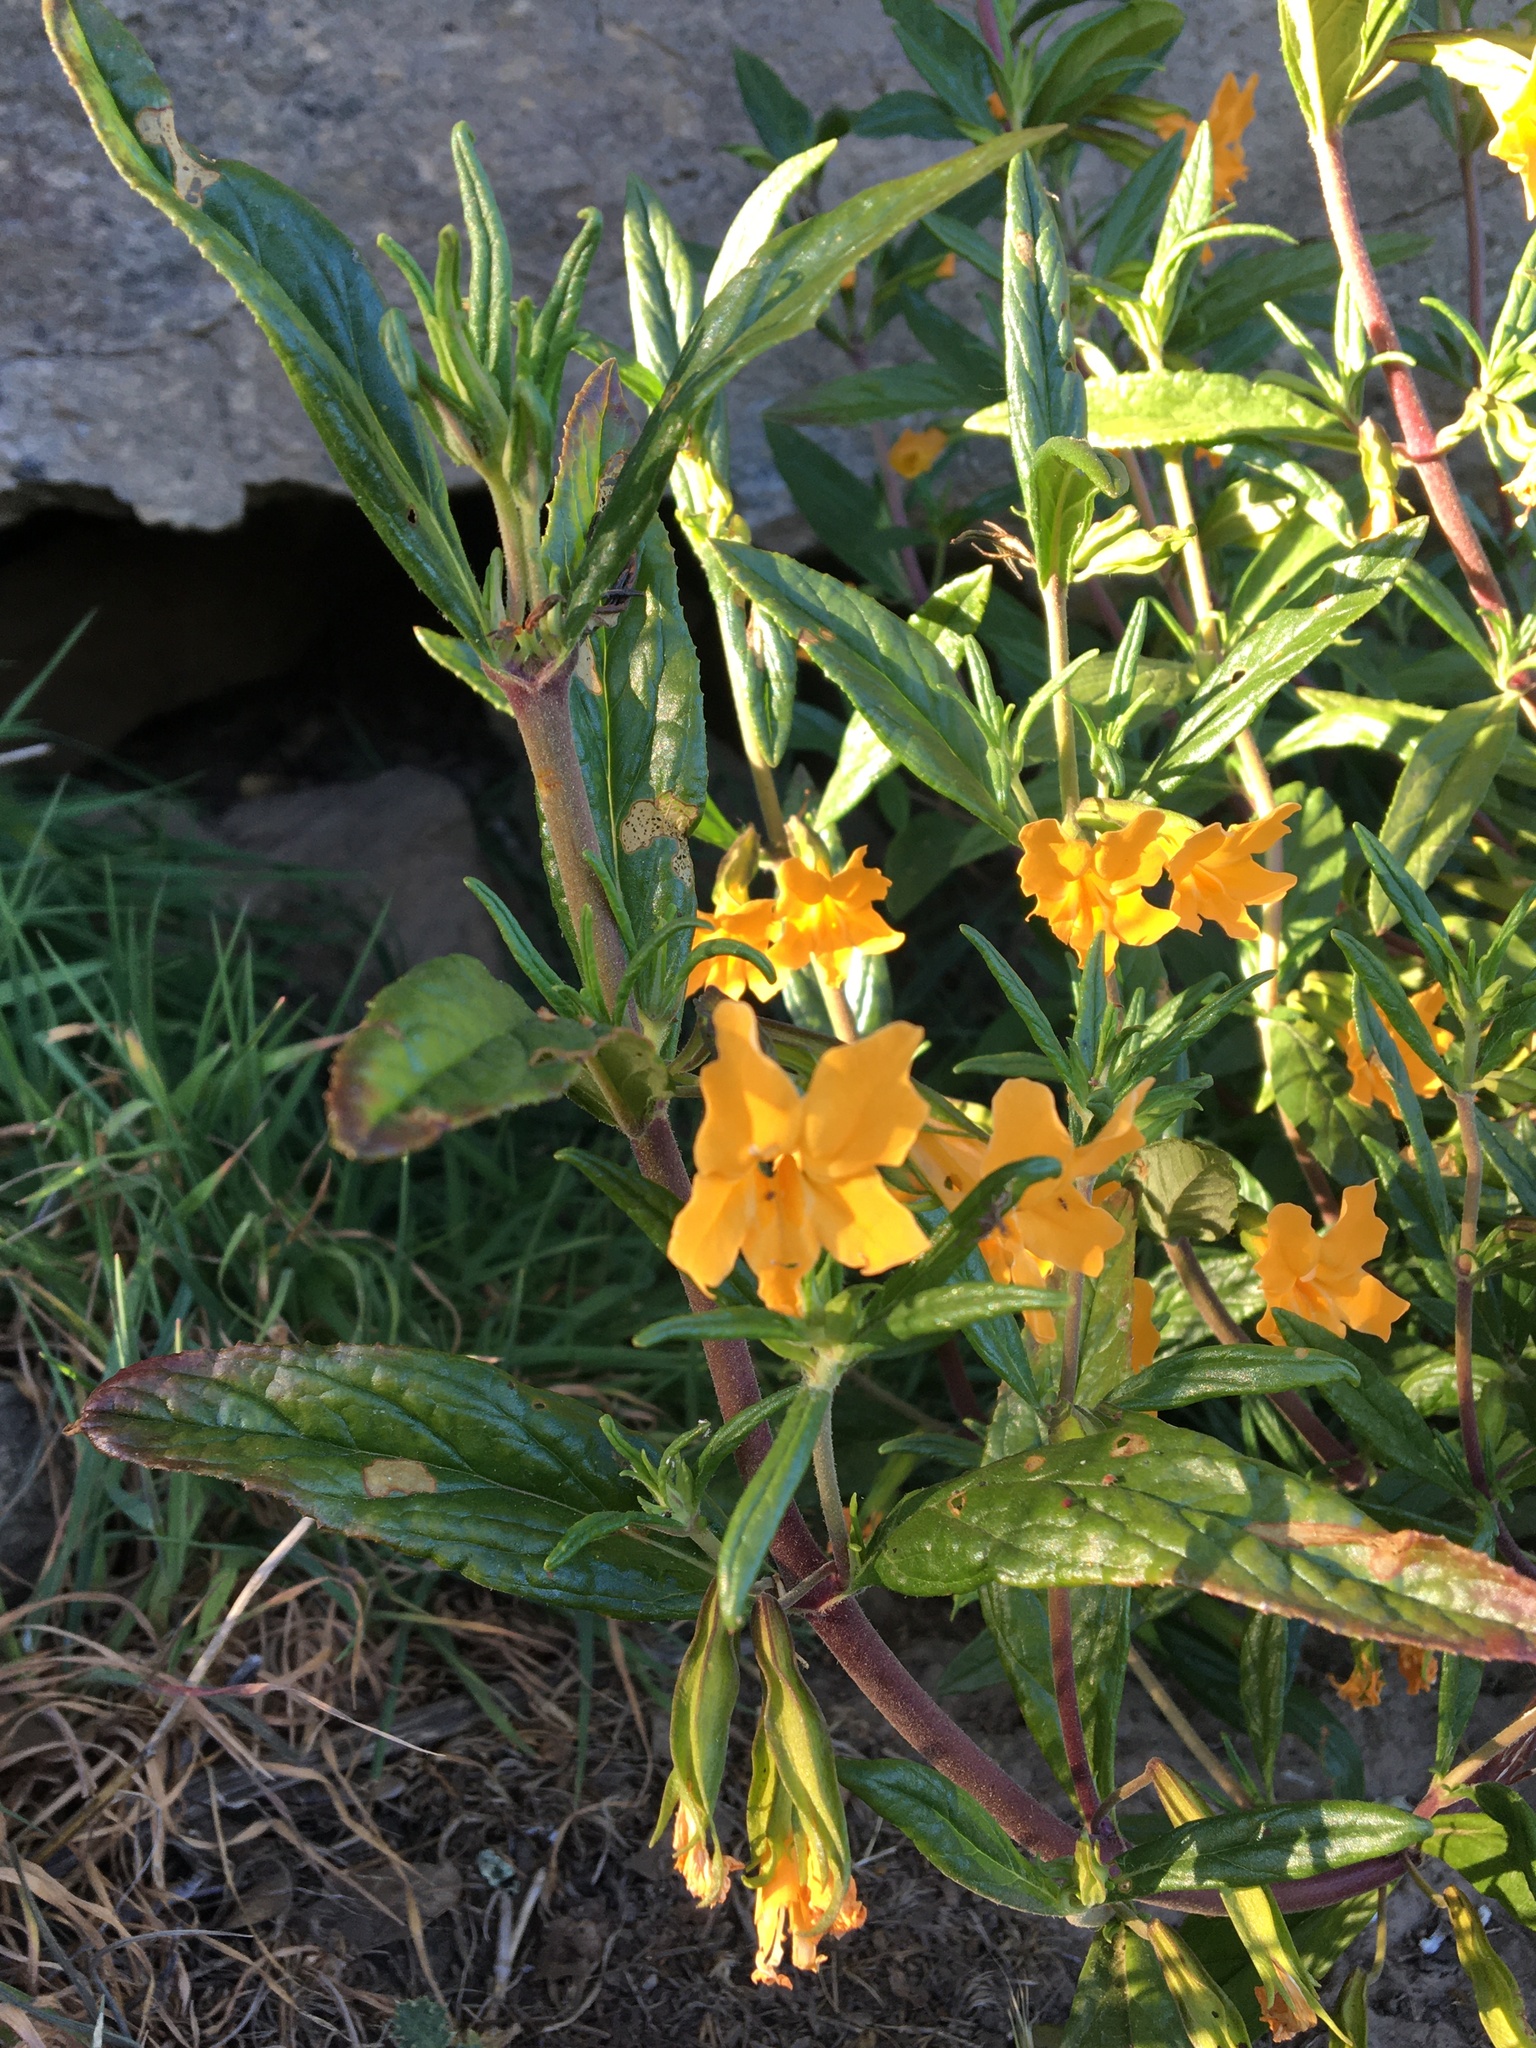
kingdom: Plantae
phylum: Tracheophyta
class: Magnoliopsida
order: Lamiales
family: Phrymaceae
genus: Diplacus
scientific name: Diplacus aurantiacus
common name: Bush monkey-flower
